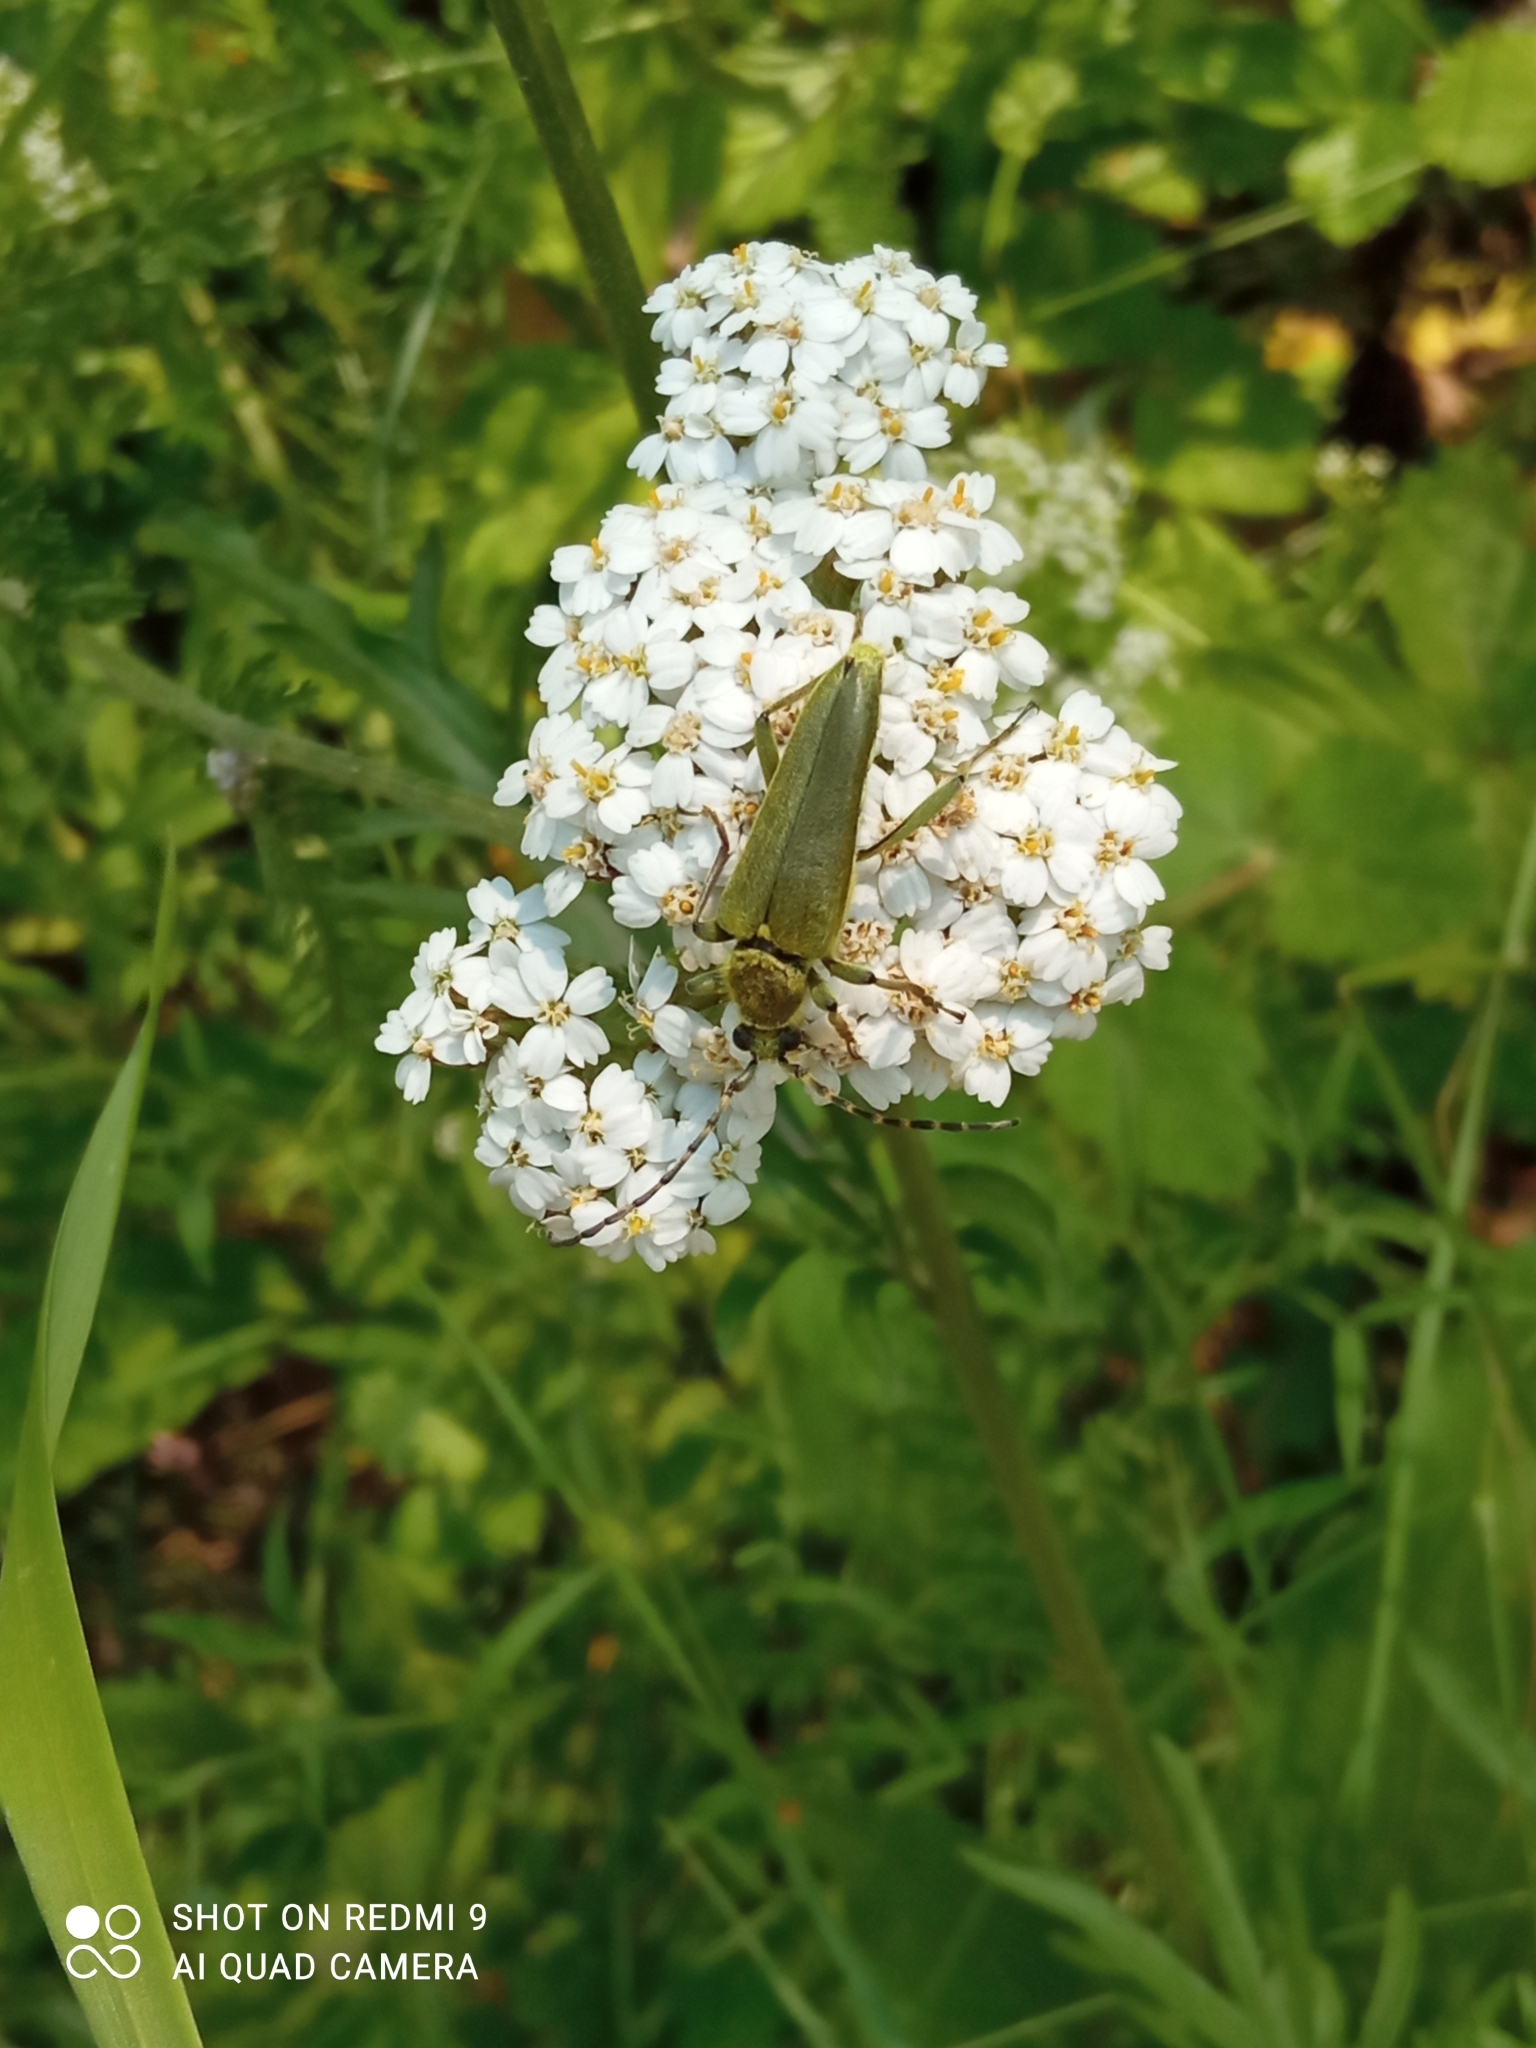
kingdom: Animalia
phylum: Arthropoda
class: Insecta
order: Coleoptera
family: Cerambycidae
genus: Lepturobosca
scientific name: Lepturobosca virens
